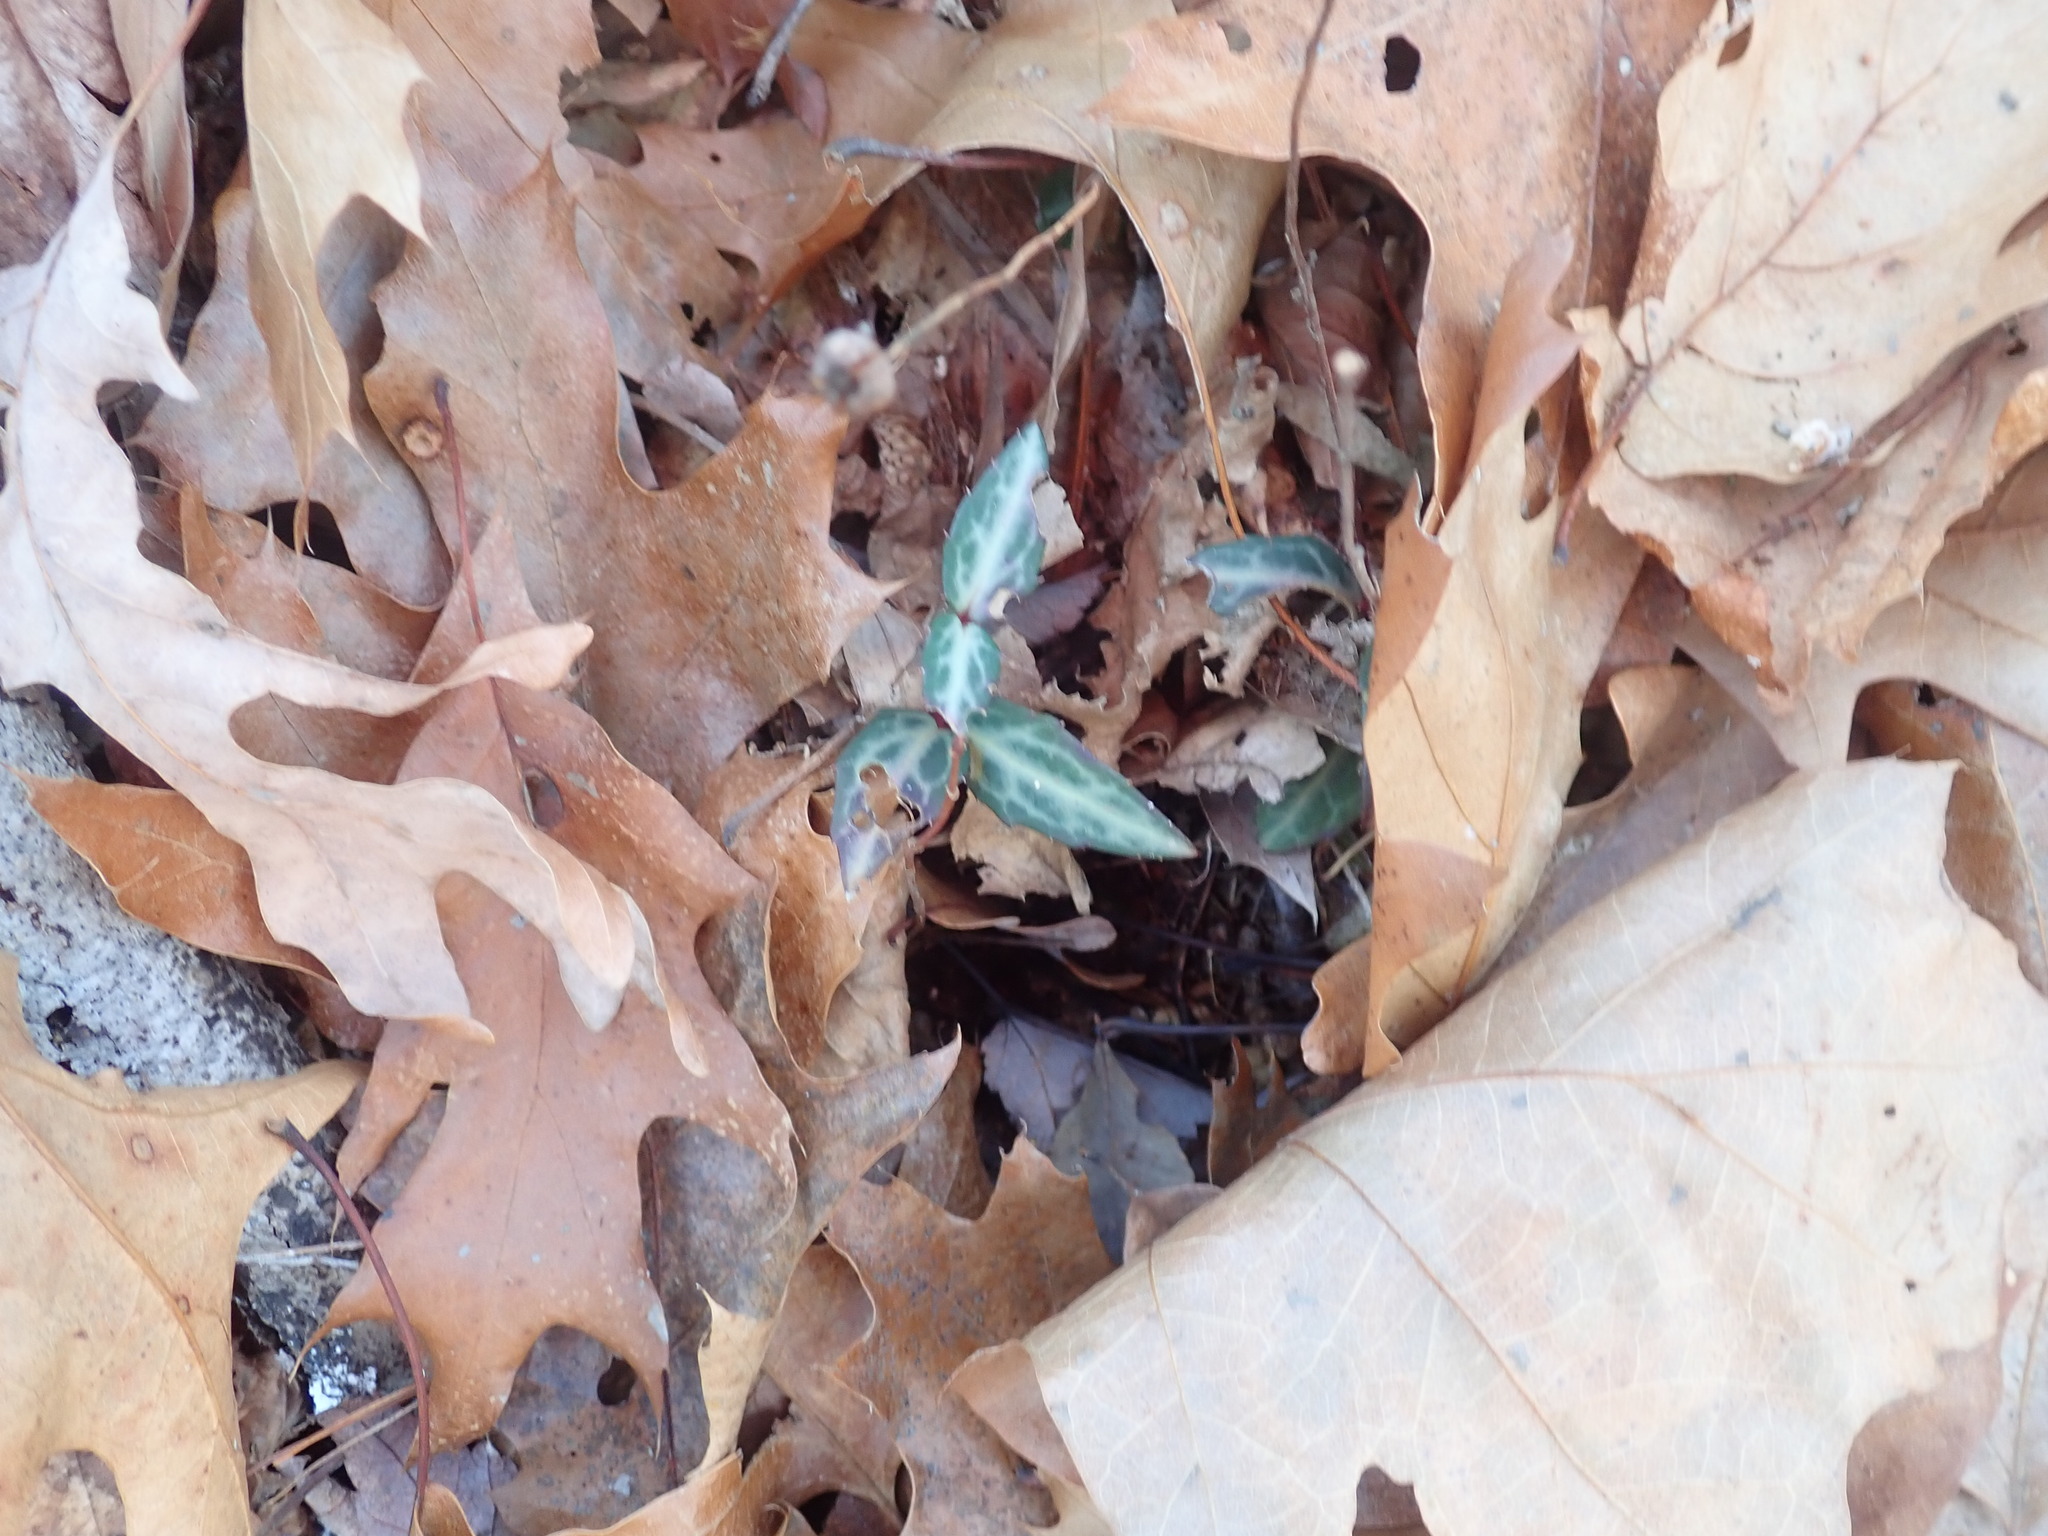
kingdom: Plantae
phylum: Tracheophyta
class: Magnoliopsida
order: Ericales
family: Ericaceae
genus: Chimaphila
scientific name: Chimaphila maculata
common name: Spotted pipsissewa
